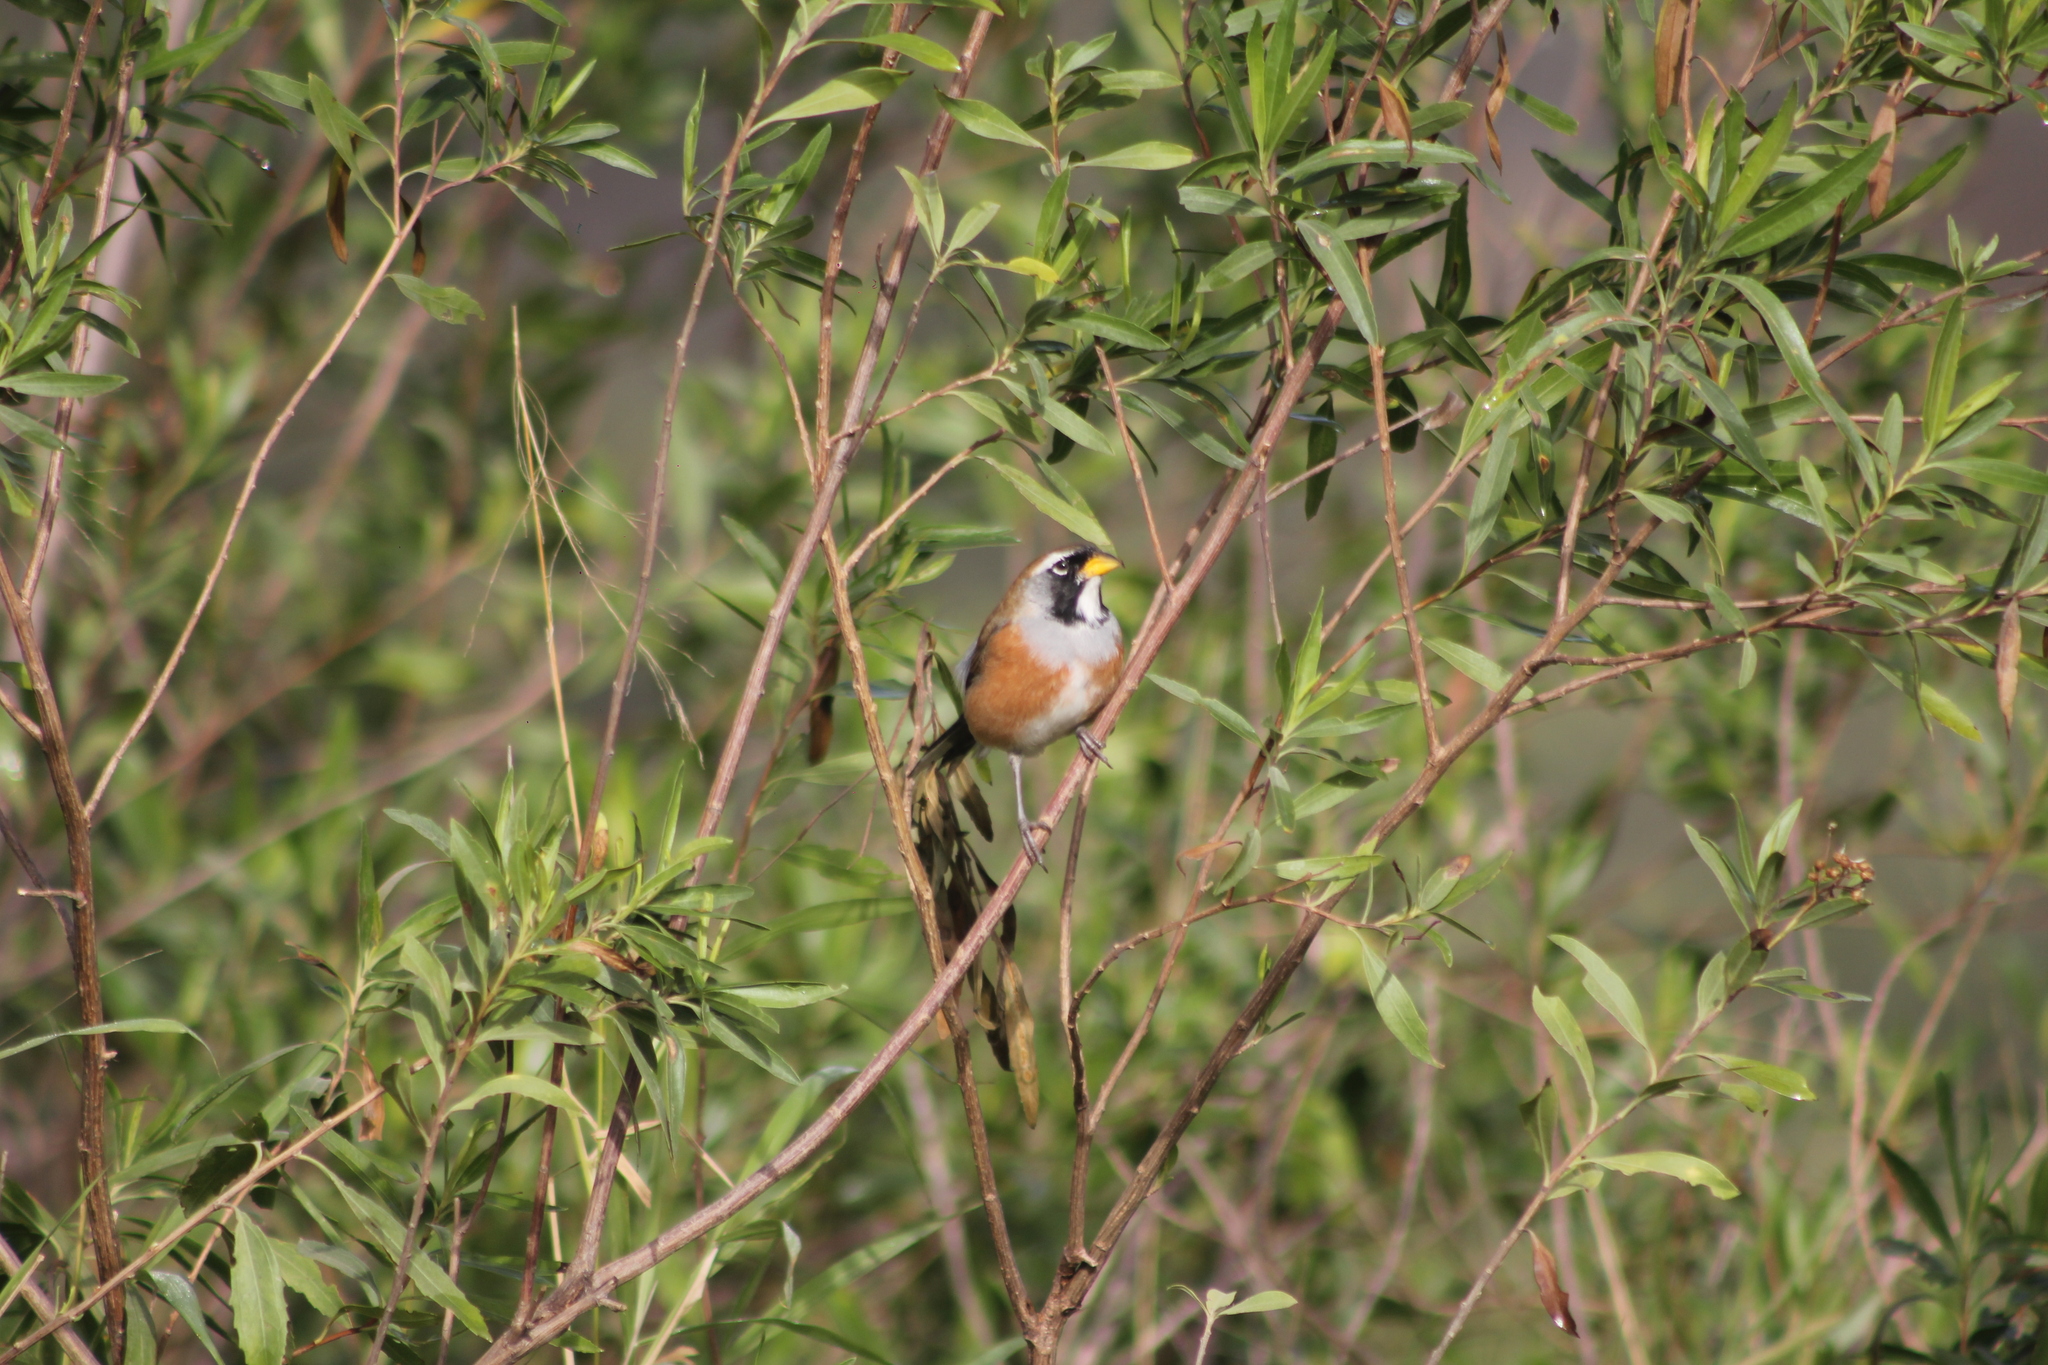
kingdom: Animalia
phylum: Chordata
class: Aves
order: Passeriformes
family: Thraupidae
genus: Saltatricula
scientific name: Saltatricula multicolor
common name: Many-colored chaco finch
